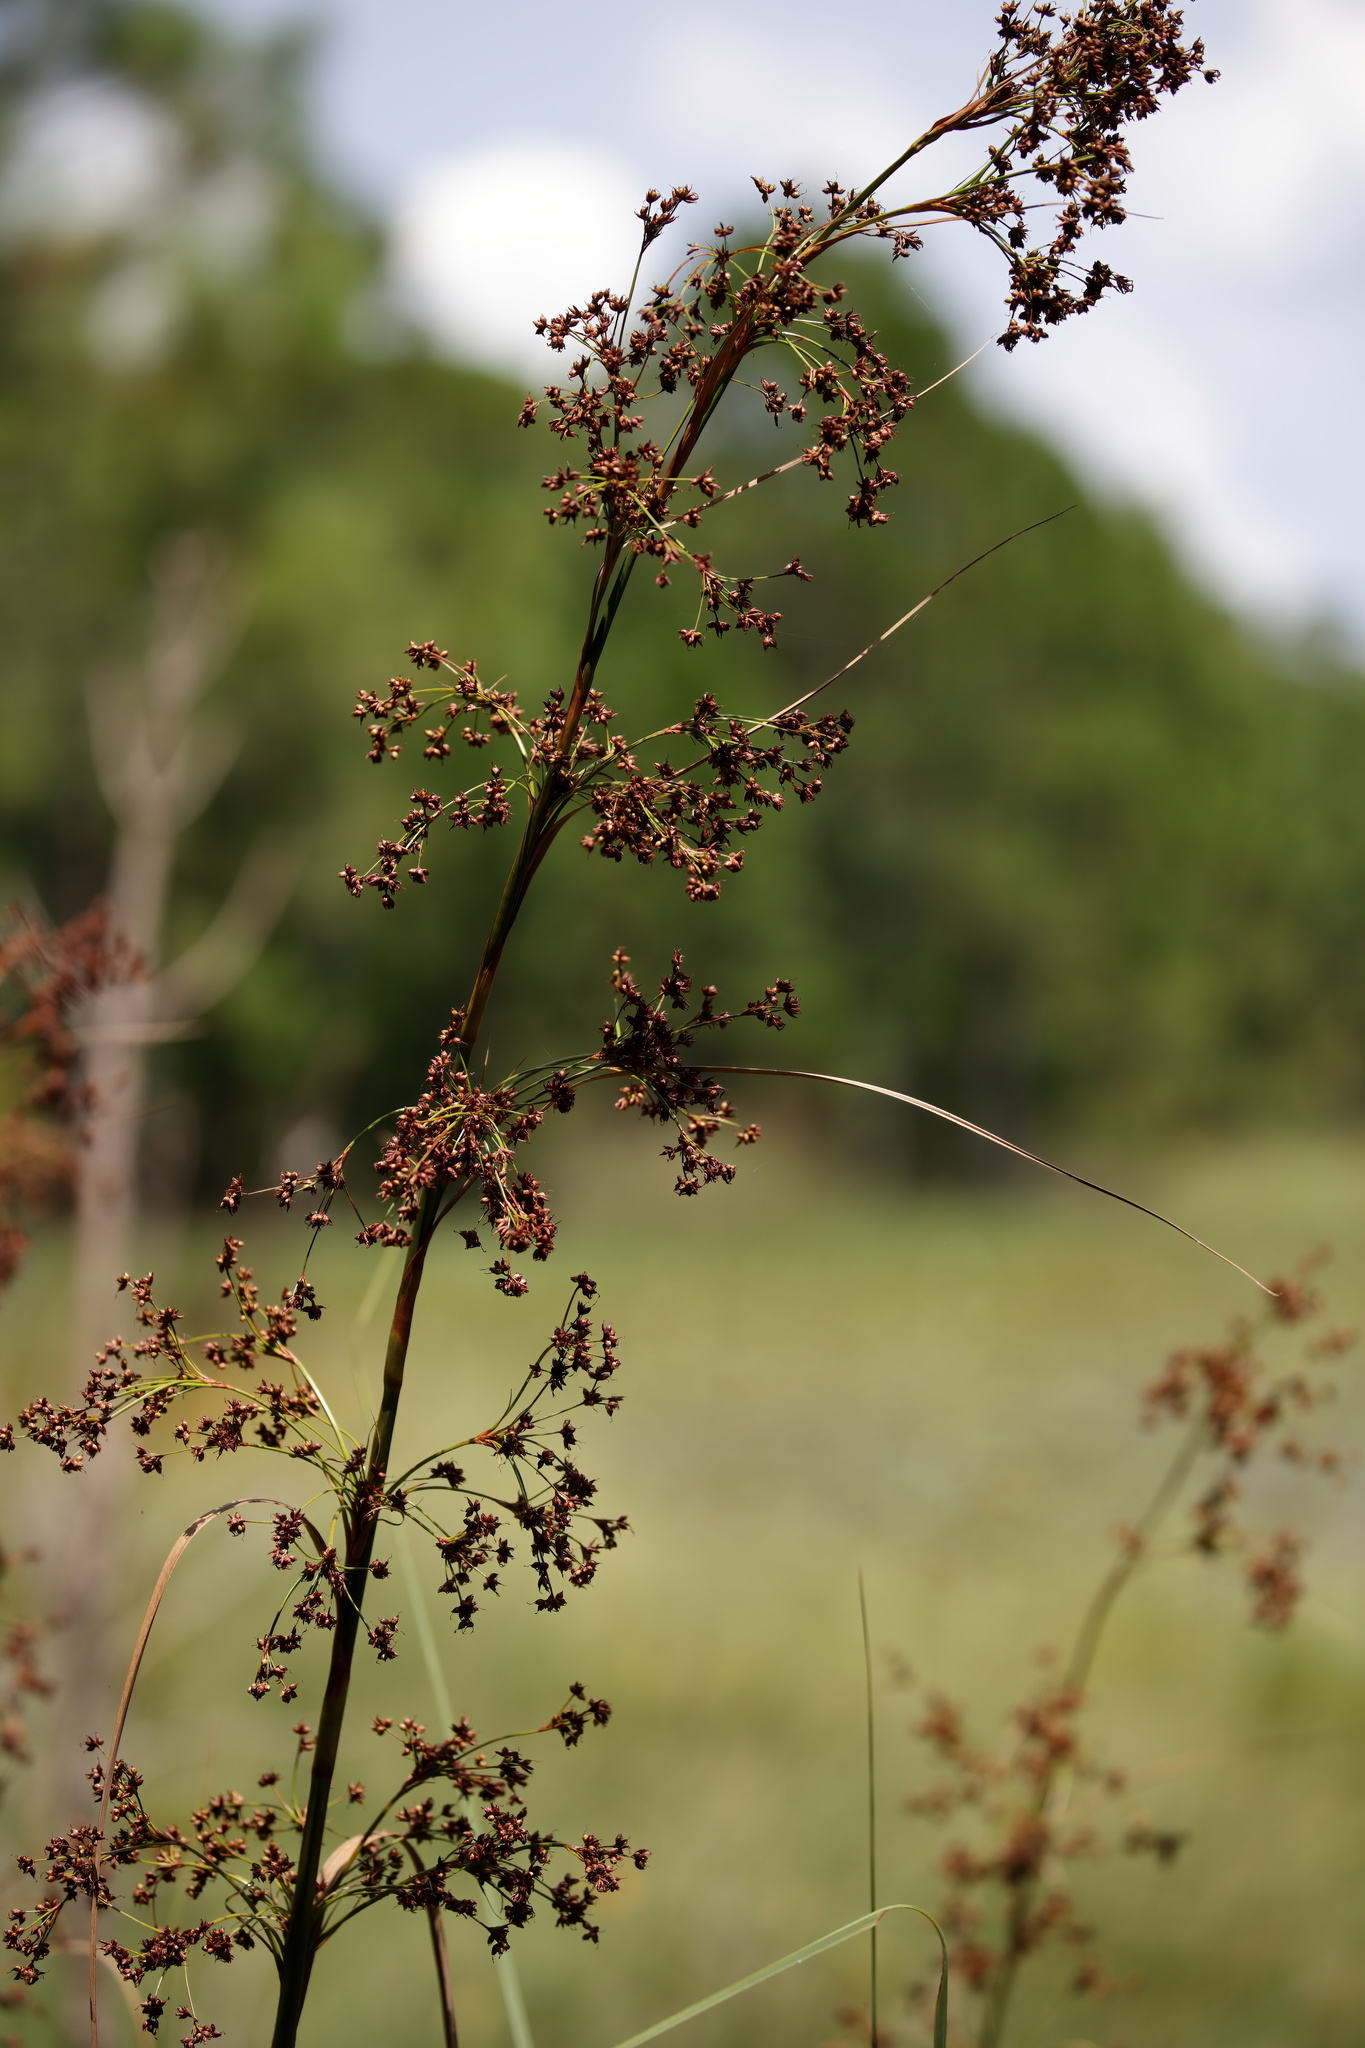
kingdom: Plantae
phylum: Tracheophyta
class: Liliopsida
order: Poales
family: Cyperaceae
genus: Cladium
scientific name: Cladium mariscus
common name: Great fen-sedge
